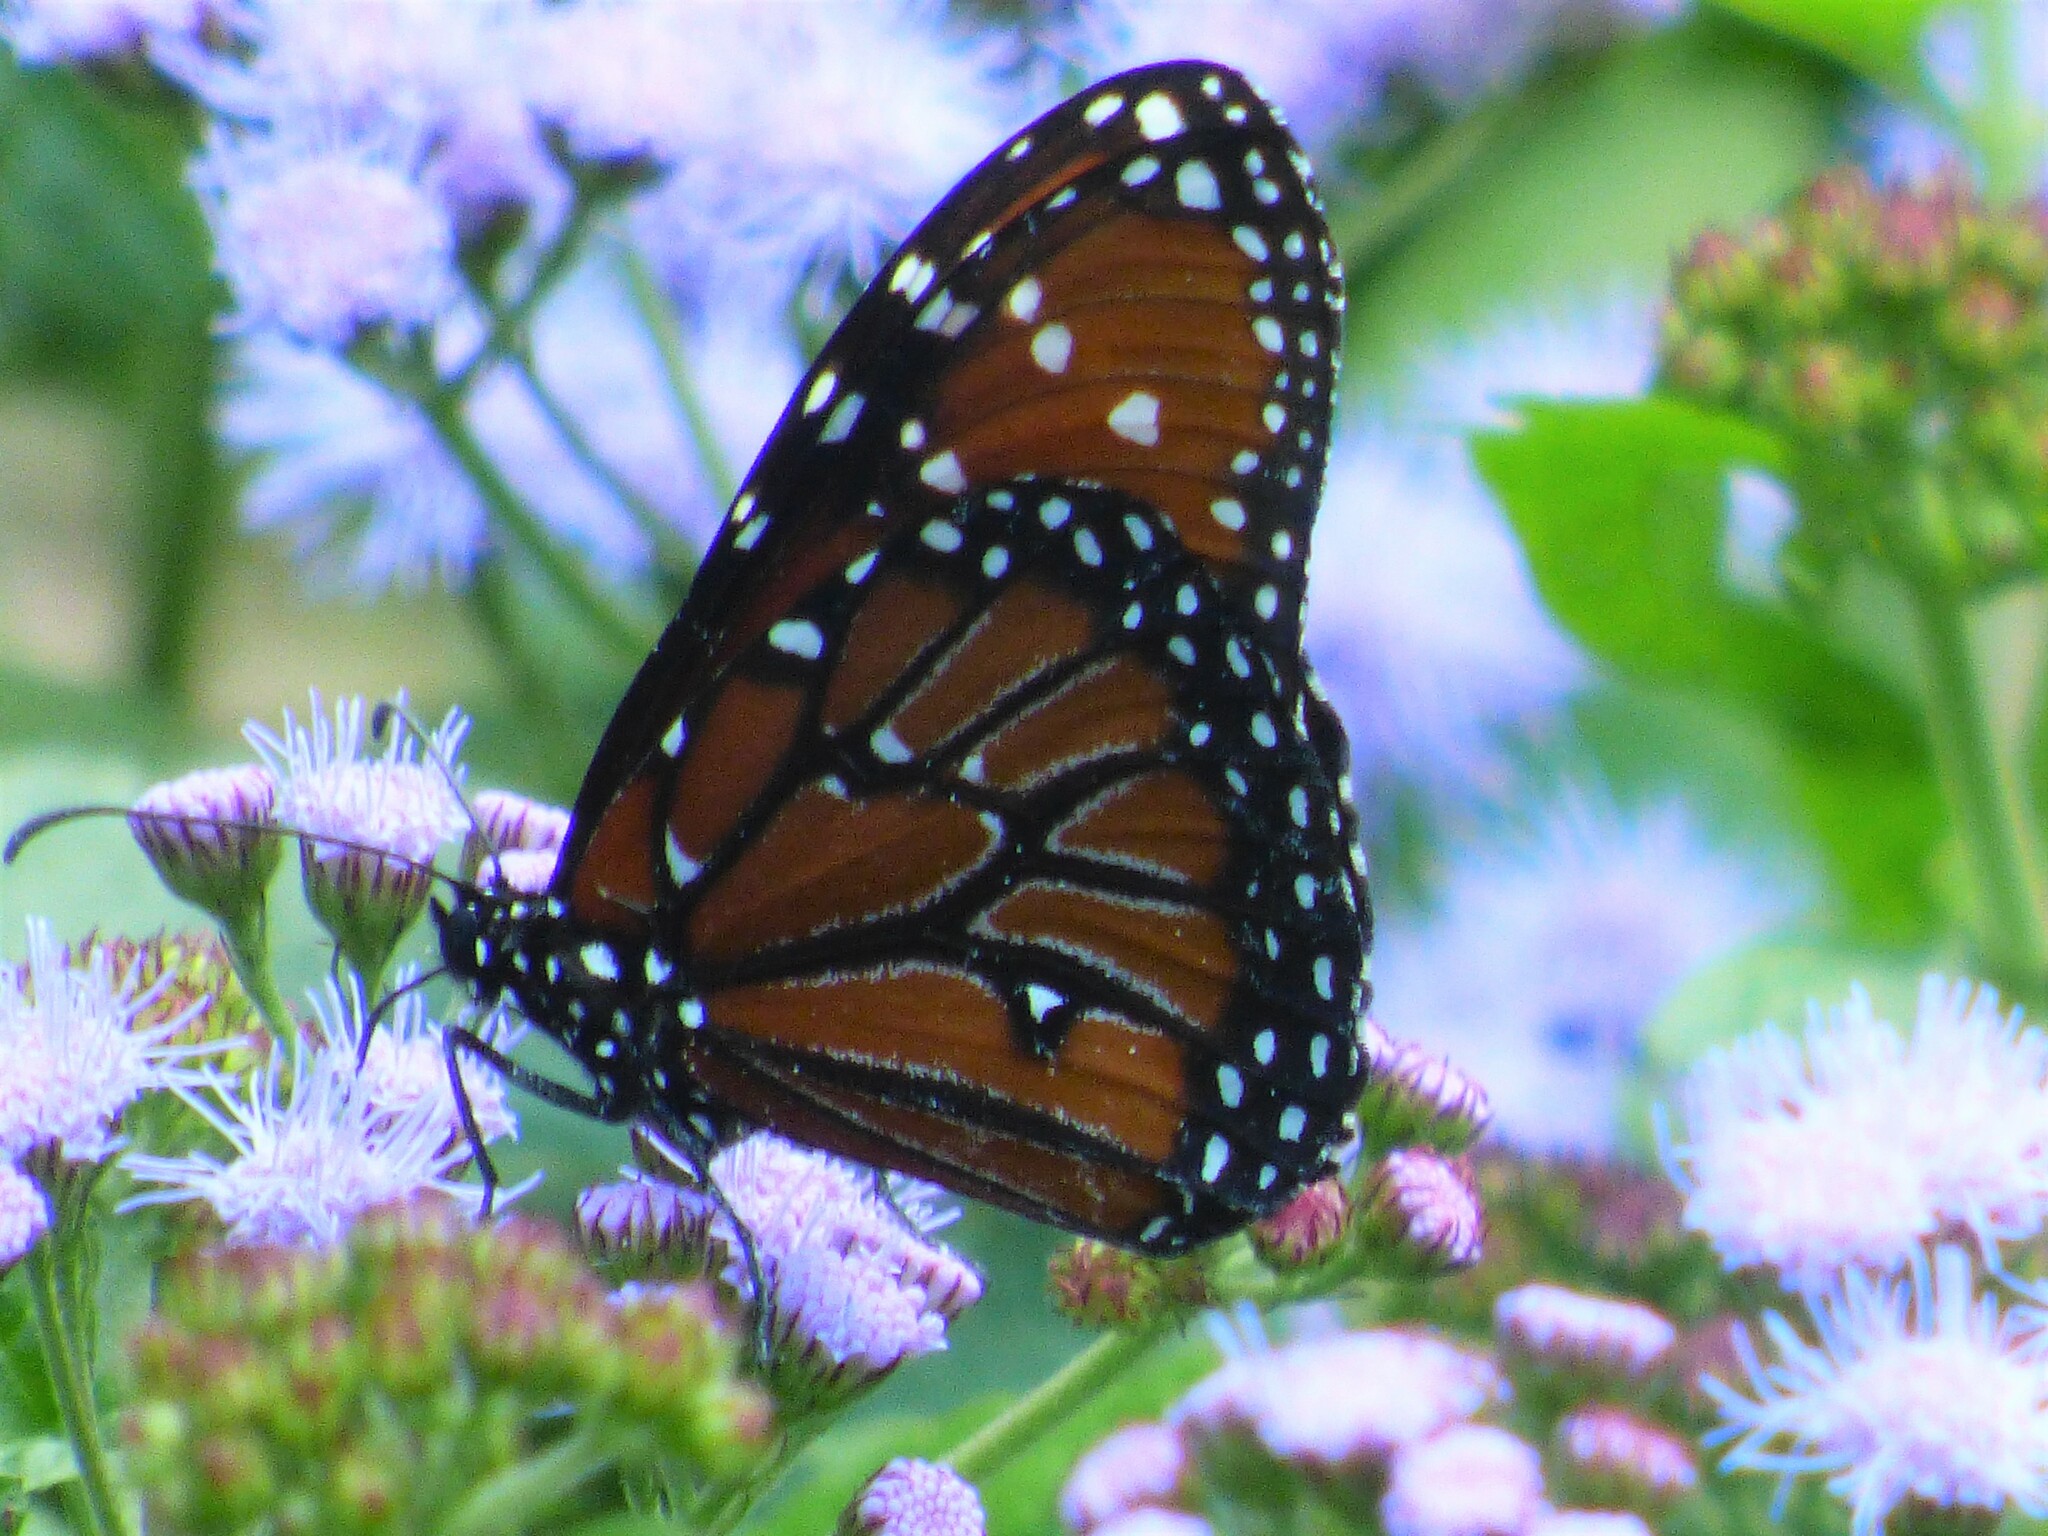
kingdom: Animalia
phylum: Arthropoda
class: Insecta
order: Lepidoptera
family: Nymphalidae
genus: Danaus
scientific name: Danaus gilippus
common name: Queen
